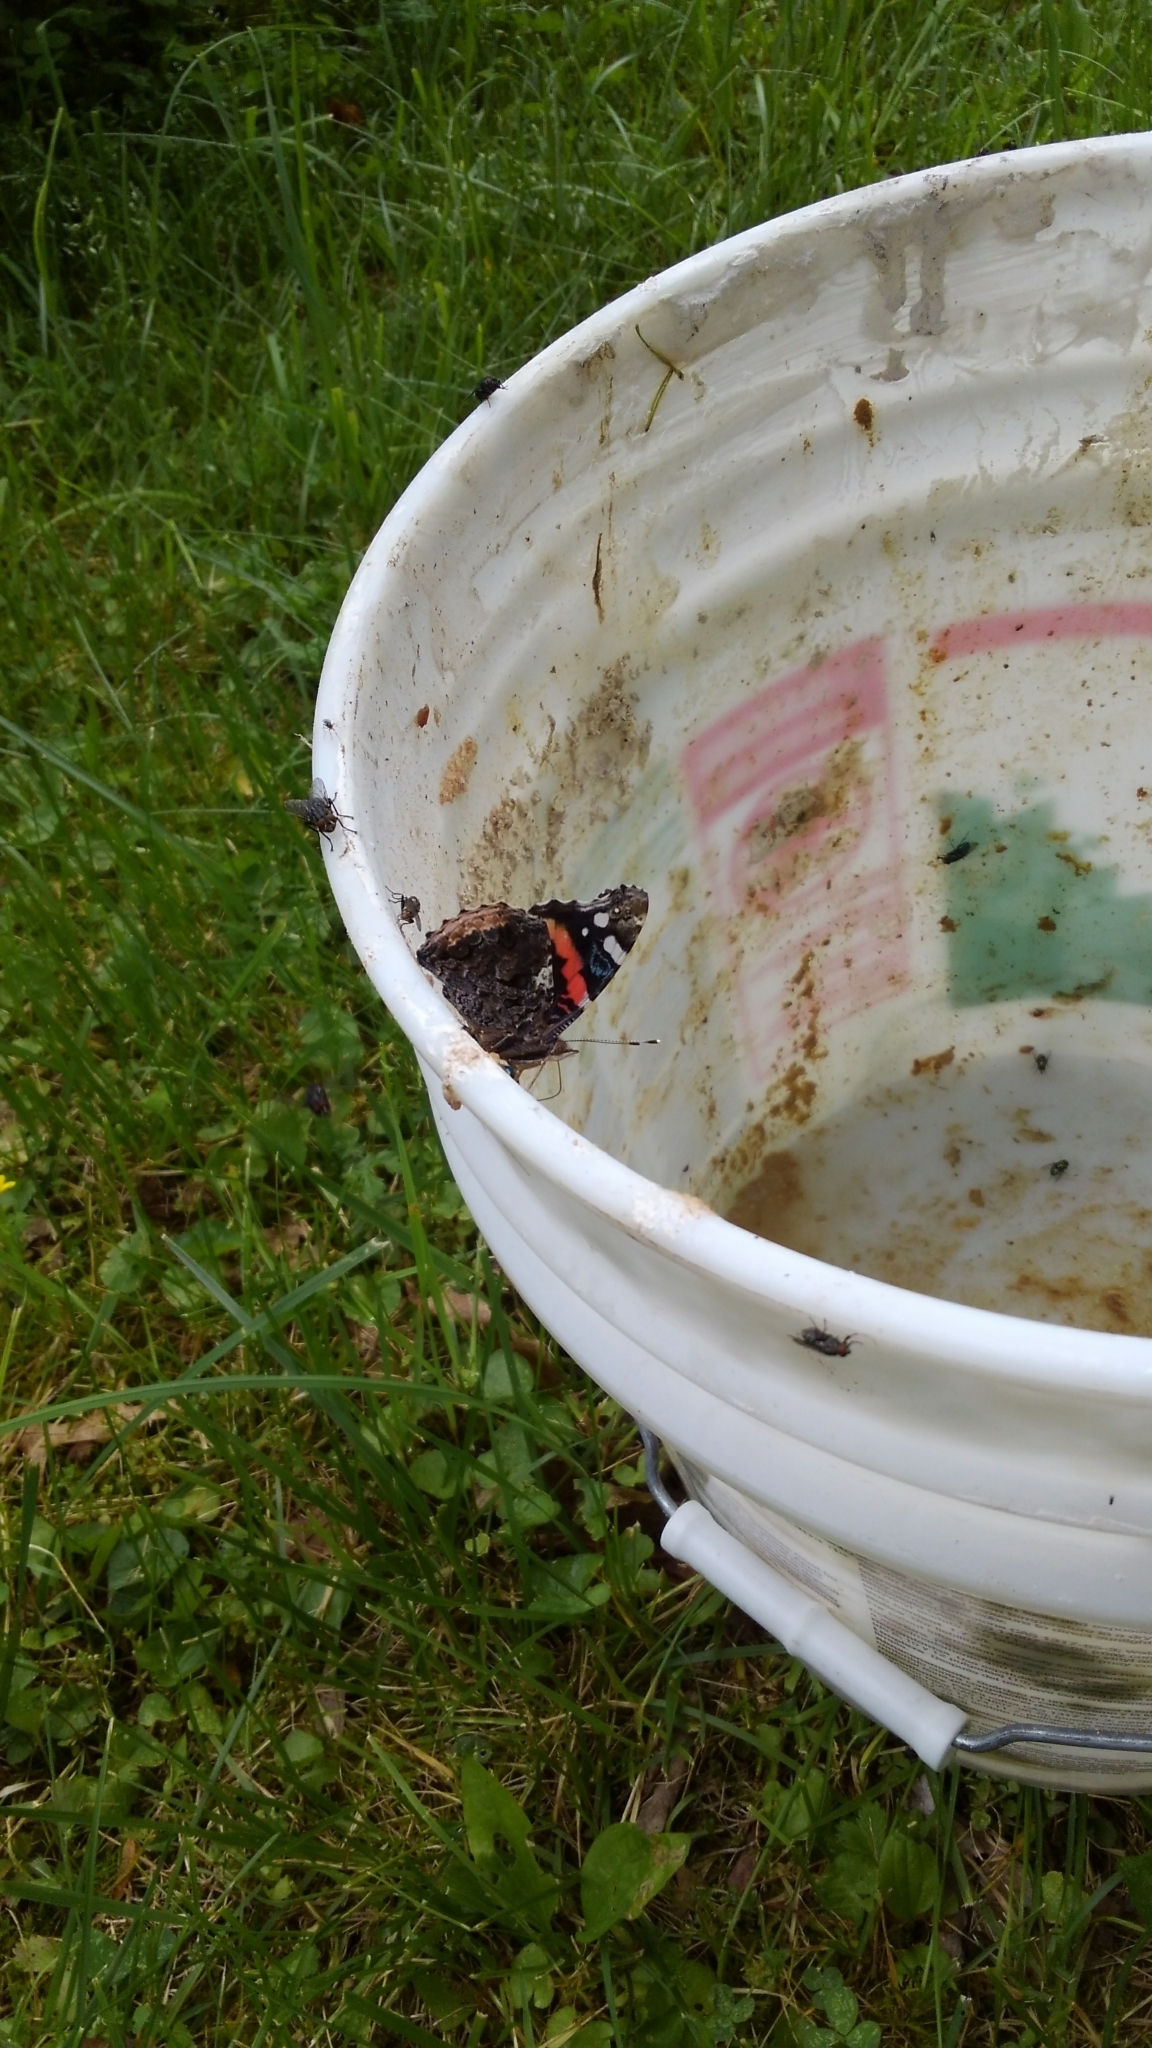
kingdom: Animalia
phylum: Arthropoda
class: Insecta
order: Lepidoptera
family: Nymphalidae
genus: Vanessa
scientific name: Vanessa atalanta
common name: Red admiral
